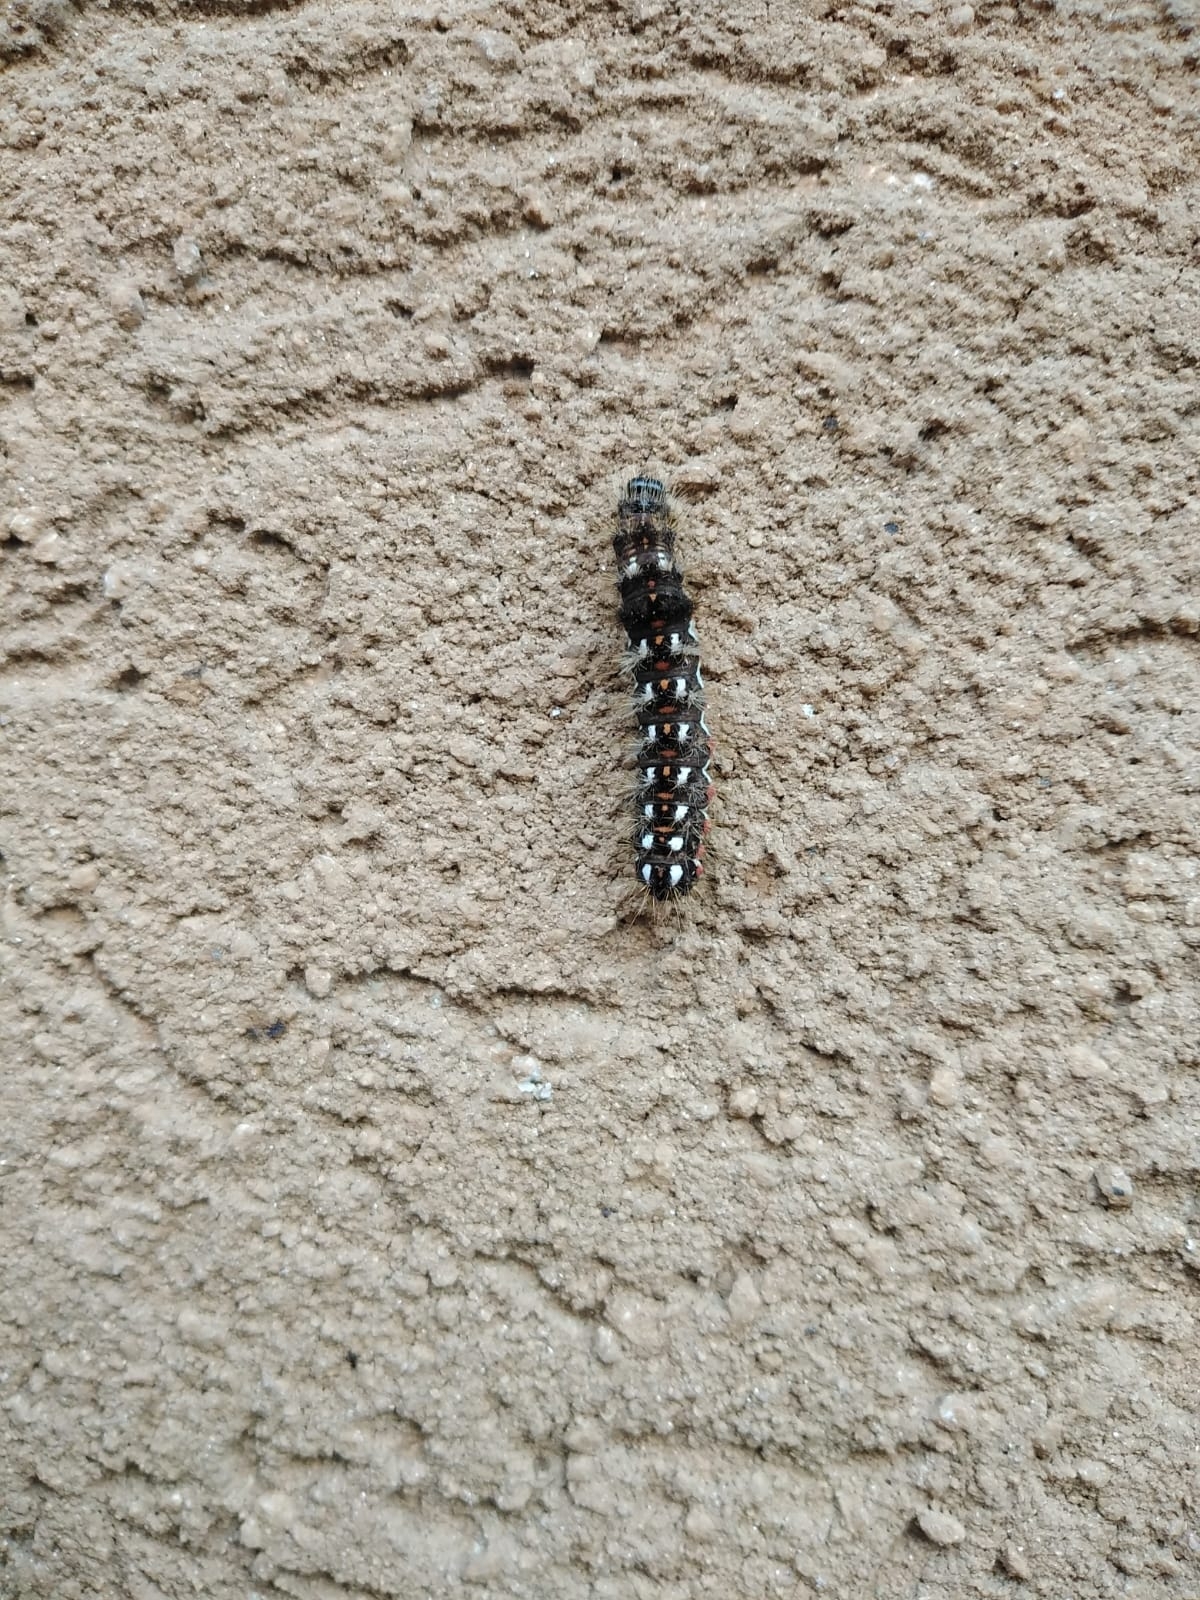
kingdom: Animalia
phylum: Arthropoda
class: Insecta
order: Lepidoptera
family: Noctuidae
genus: Acronicta
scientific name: Acronicta rumicis
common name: Knot grass
